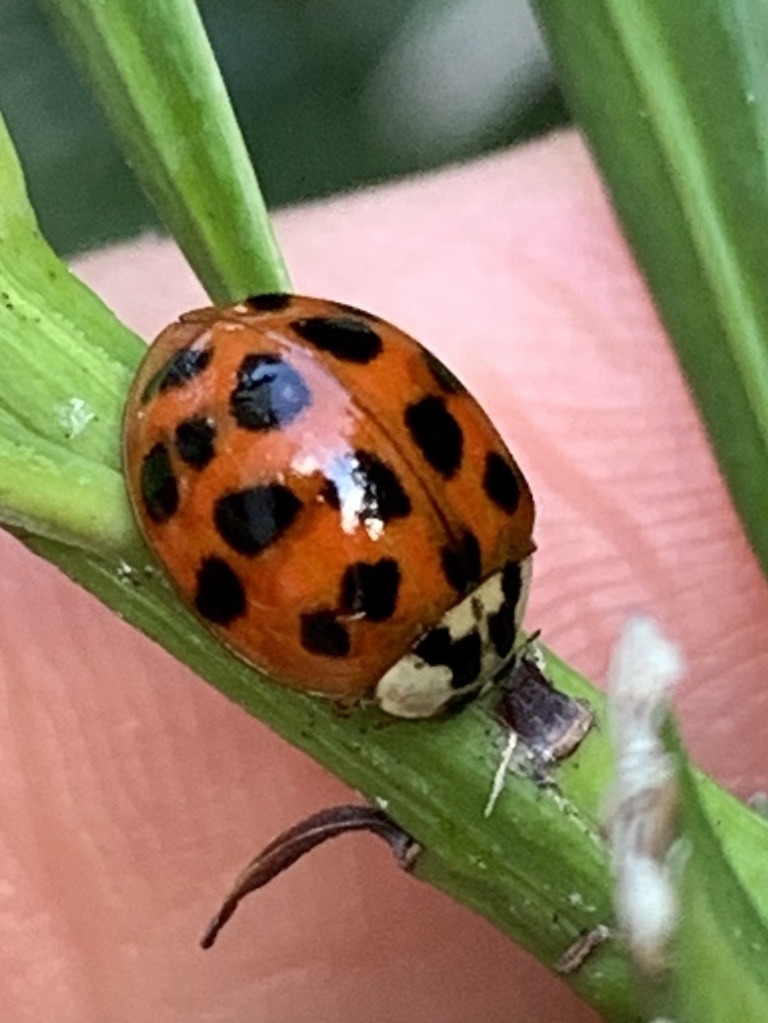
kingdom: Animalia
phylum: Arthropoda
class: Insecta
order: Coleoptera
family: Coccinellidae
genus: Harmonia
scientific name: Harmonia axyridis
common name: Harlequin ladybird
